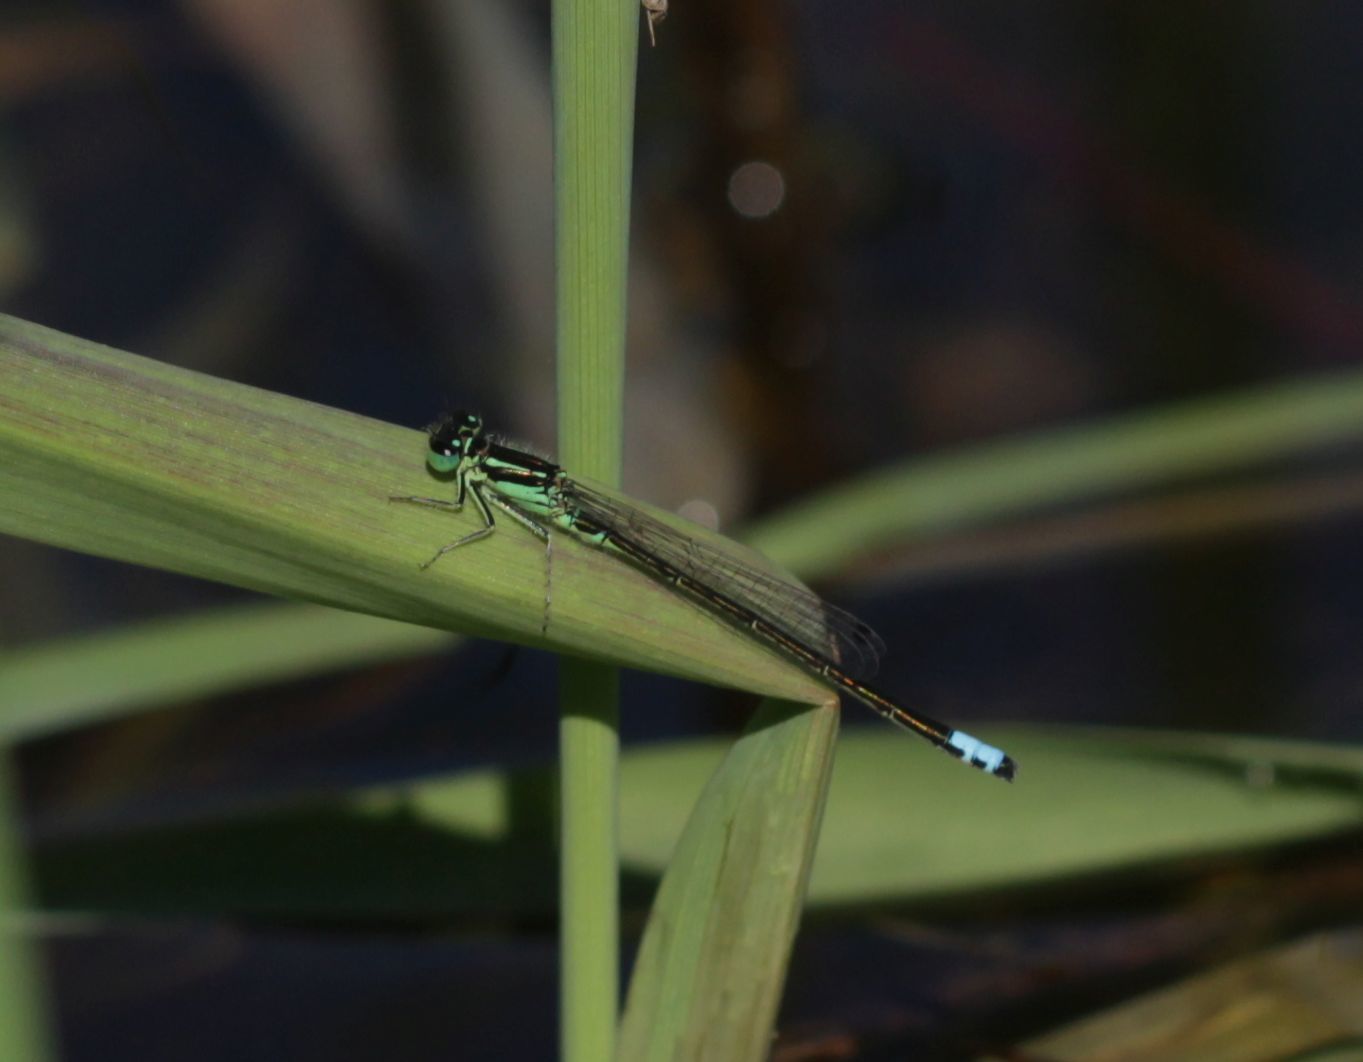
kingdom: Animalia
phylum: Arthropoda
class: Insecta
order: Odonata
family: Coenagrionidae
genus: Ischnura
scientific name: Ischnura verticalis
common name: Eastern forktail
